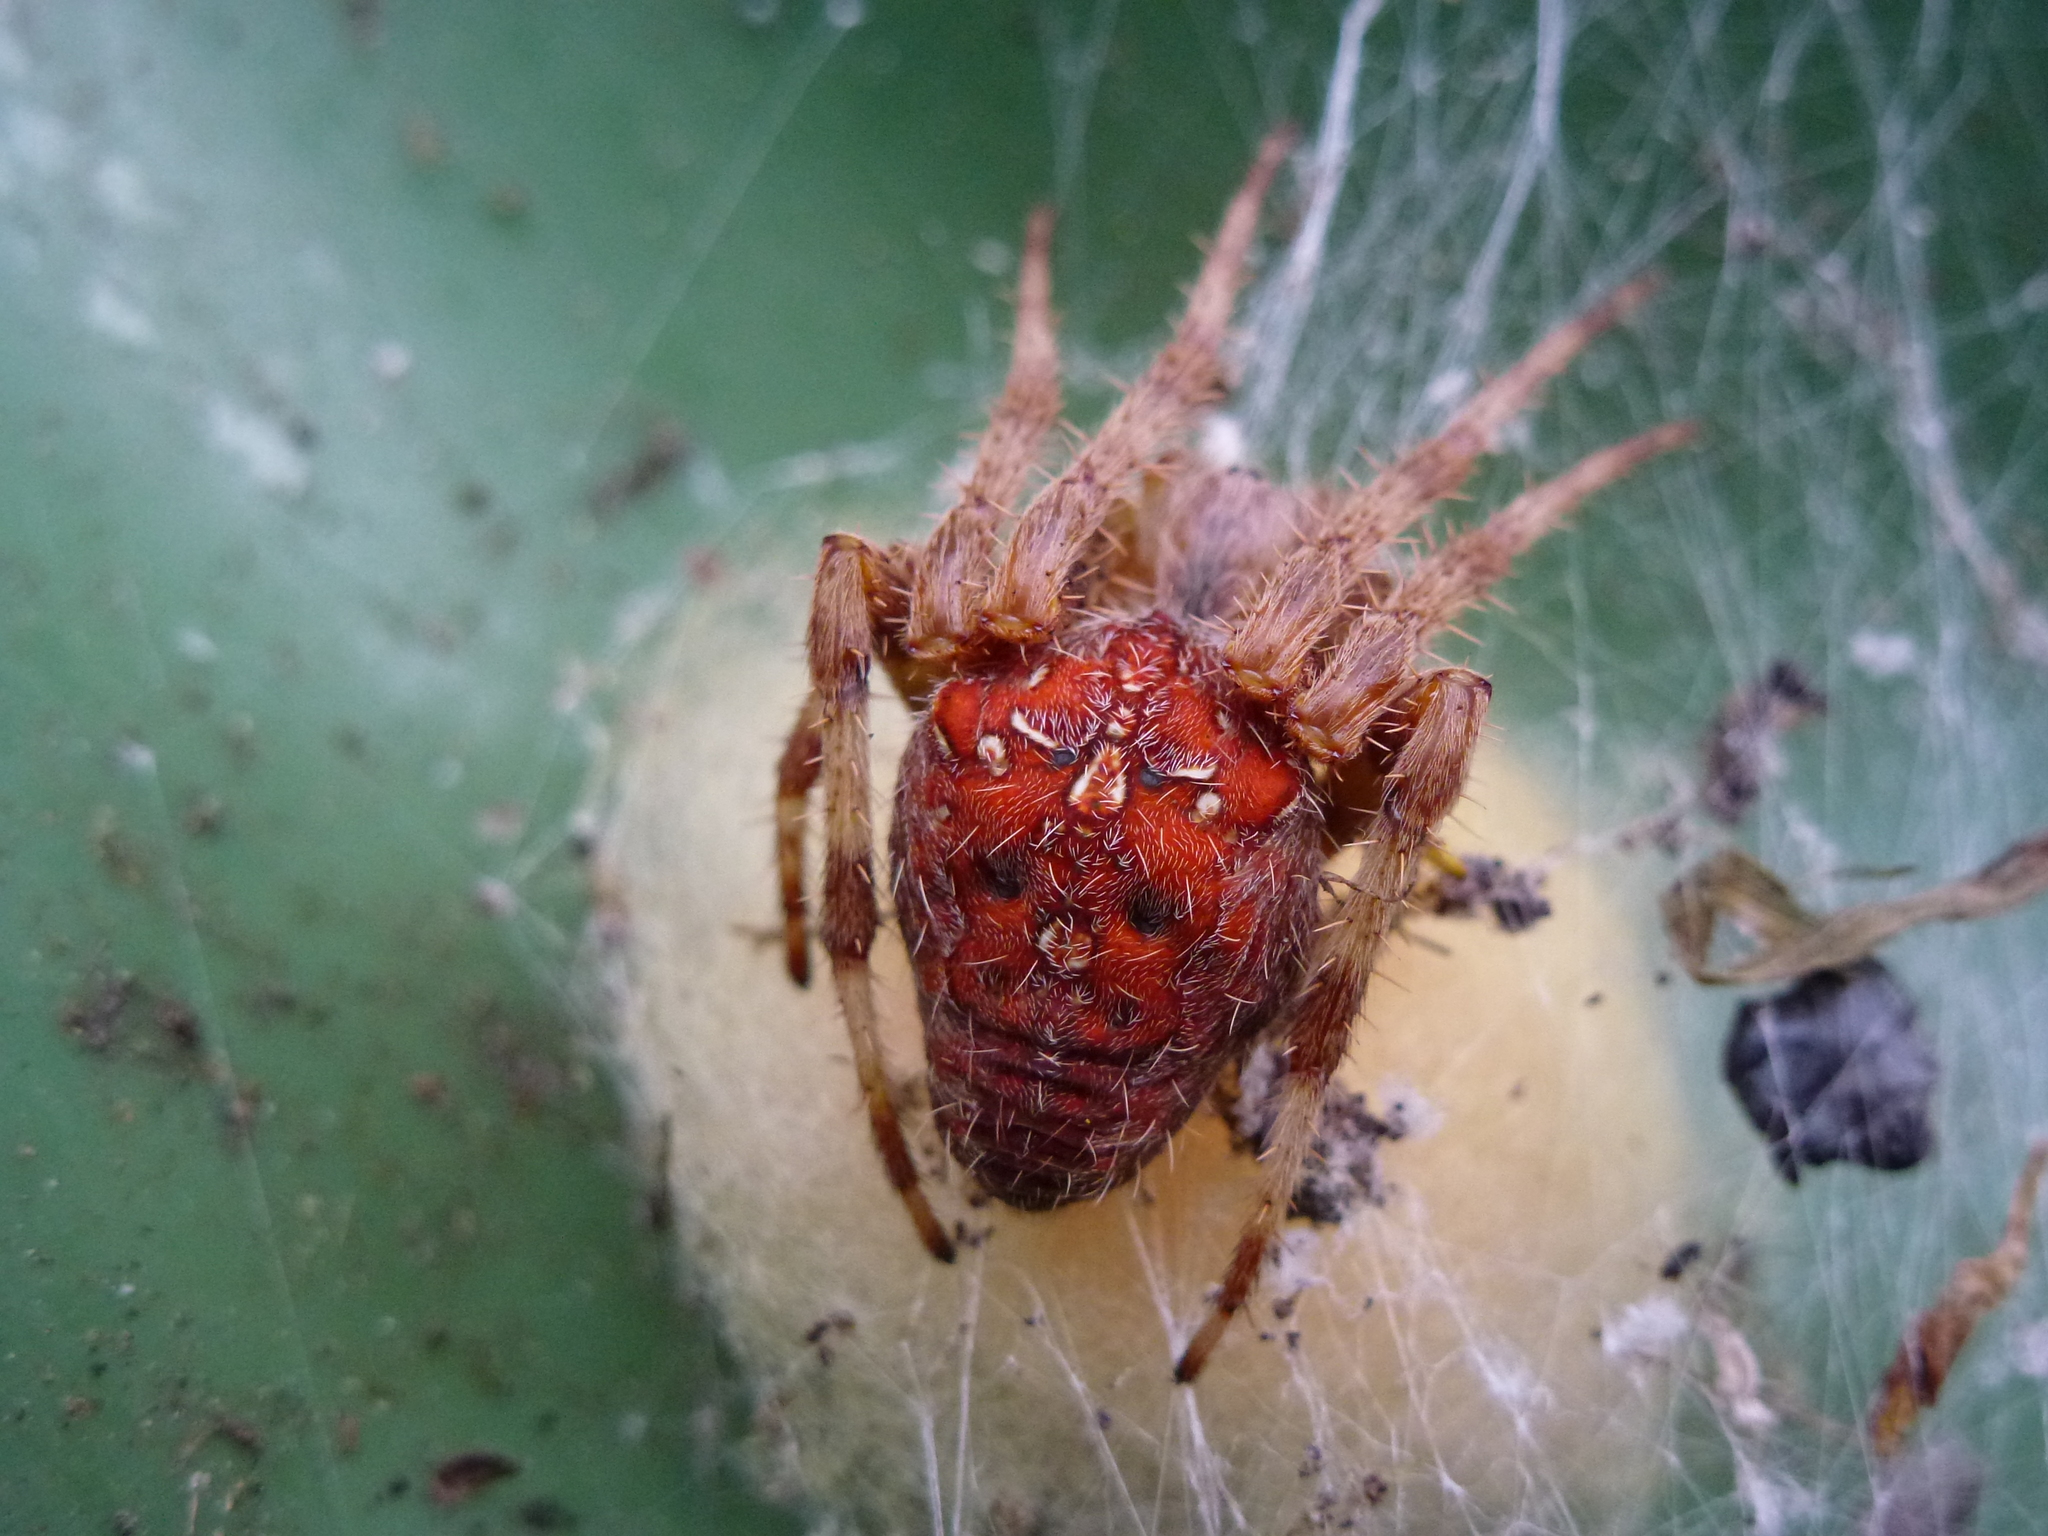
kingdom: Animalia
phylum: Arthropoda
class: Arachnida
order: Araneae
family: Araneidae
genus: Araneus
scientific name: Araneus diadematus
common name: Cross orbweaver
